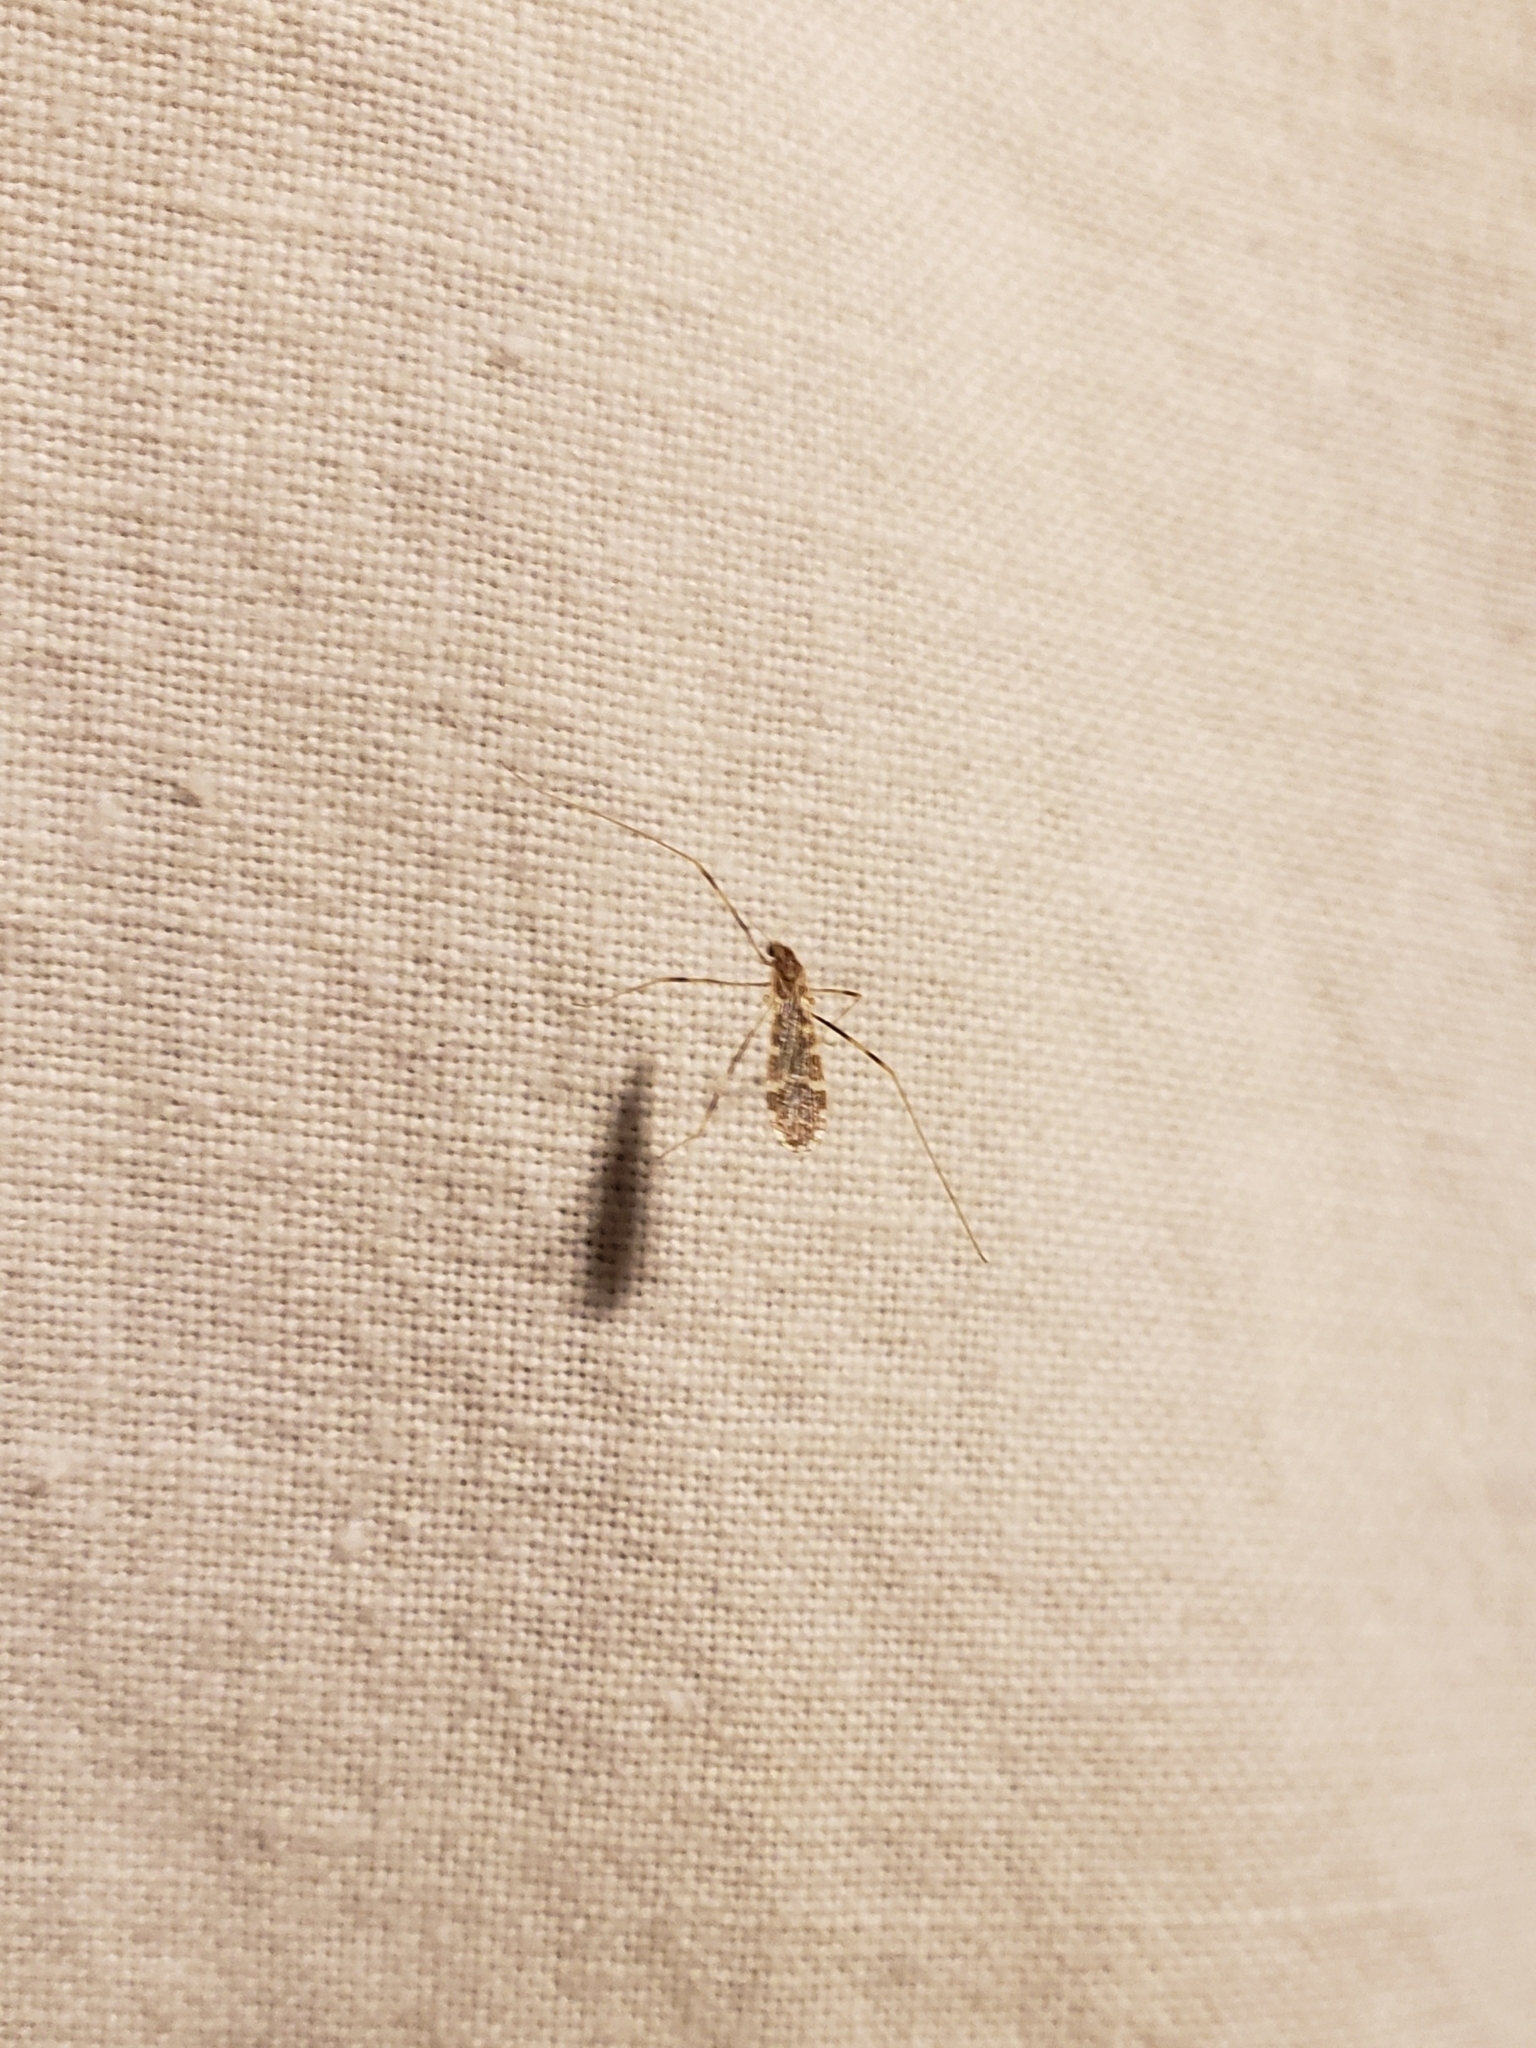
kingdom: Animalia
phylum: Arthropoda
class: Insecta
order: Diptera
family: Limoniidae
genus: Erioptera
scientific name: Erioptera caliptera
